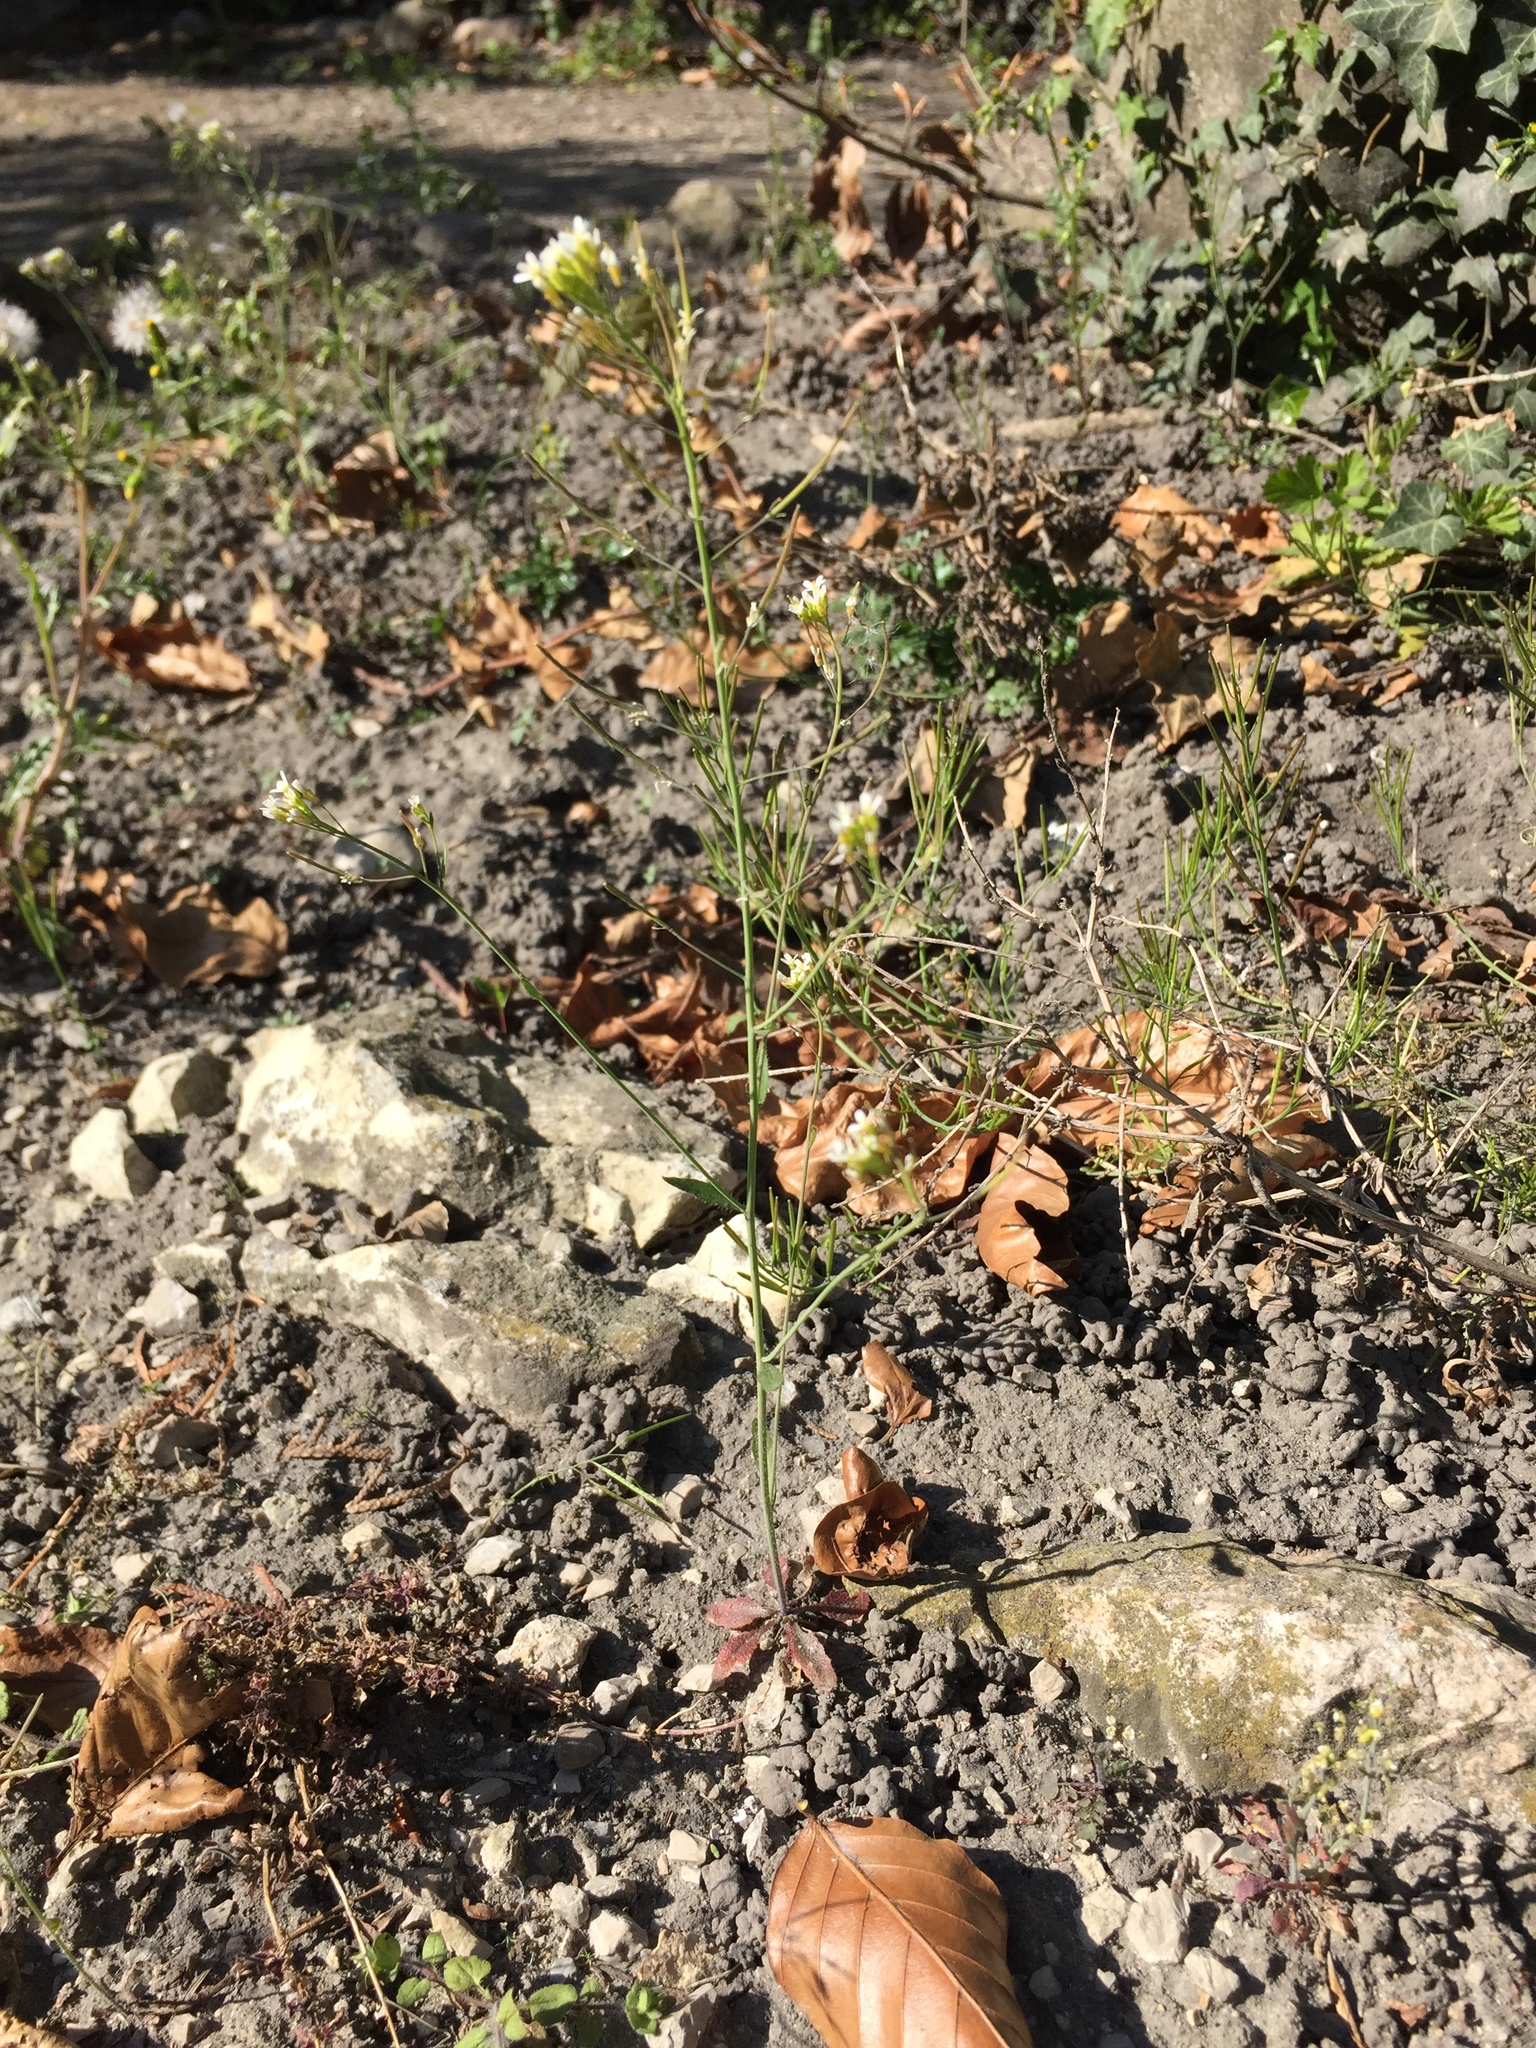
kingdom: Plantae
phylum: Tracheophyta
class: Magnoliopsida
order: Brassicales
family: Brassicaceae
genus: Arabidopsis
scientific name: Arabidopsis thaliana
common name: Thale cress
